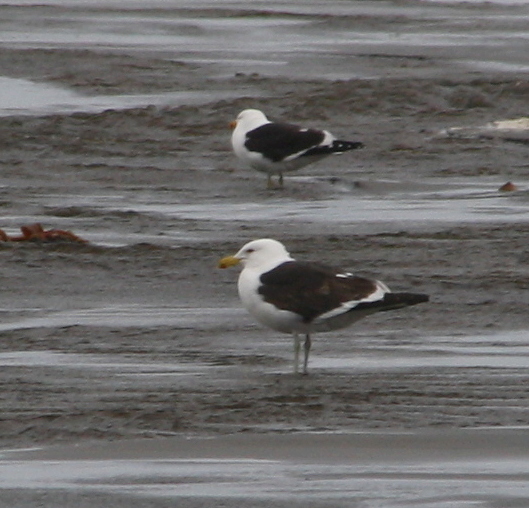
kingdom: Animalia
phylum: Chordata
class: Aves
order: Charadriiformes
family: Laridae
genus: Larus
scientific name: Larus dominicanus
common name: Kelp gull
